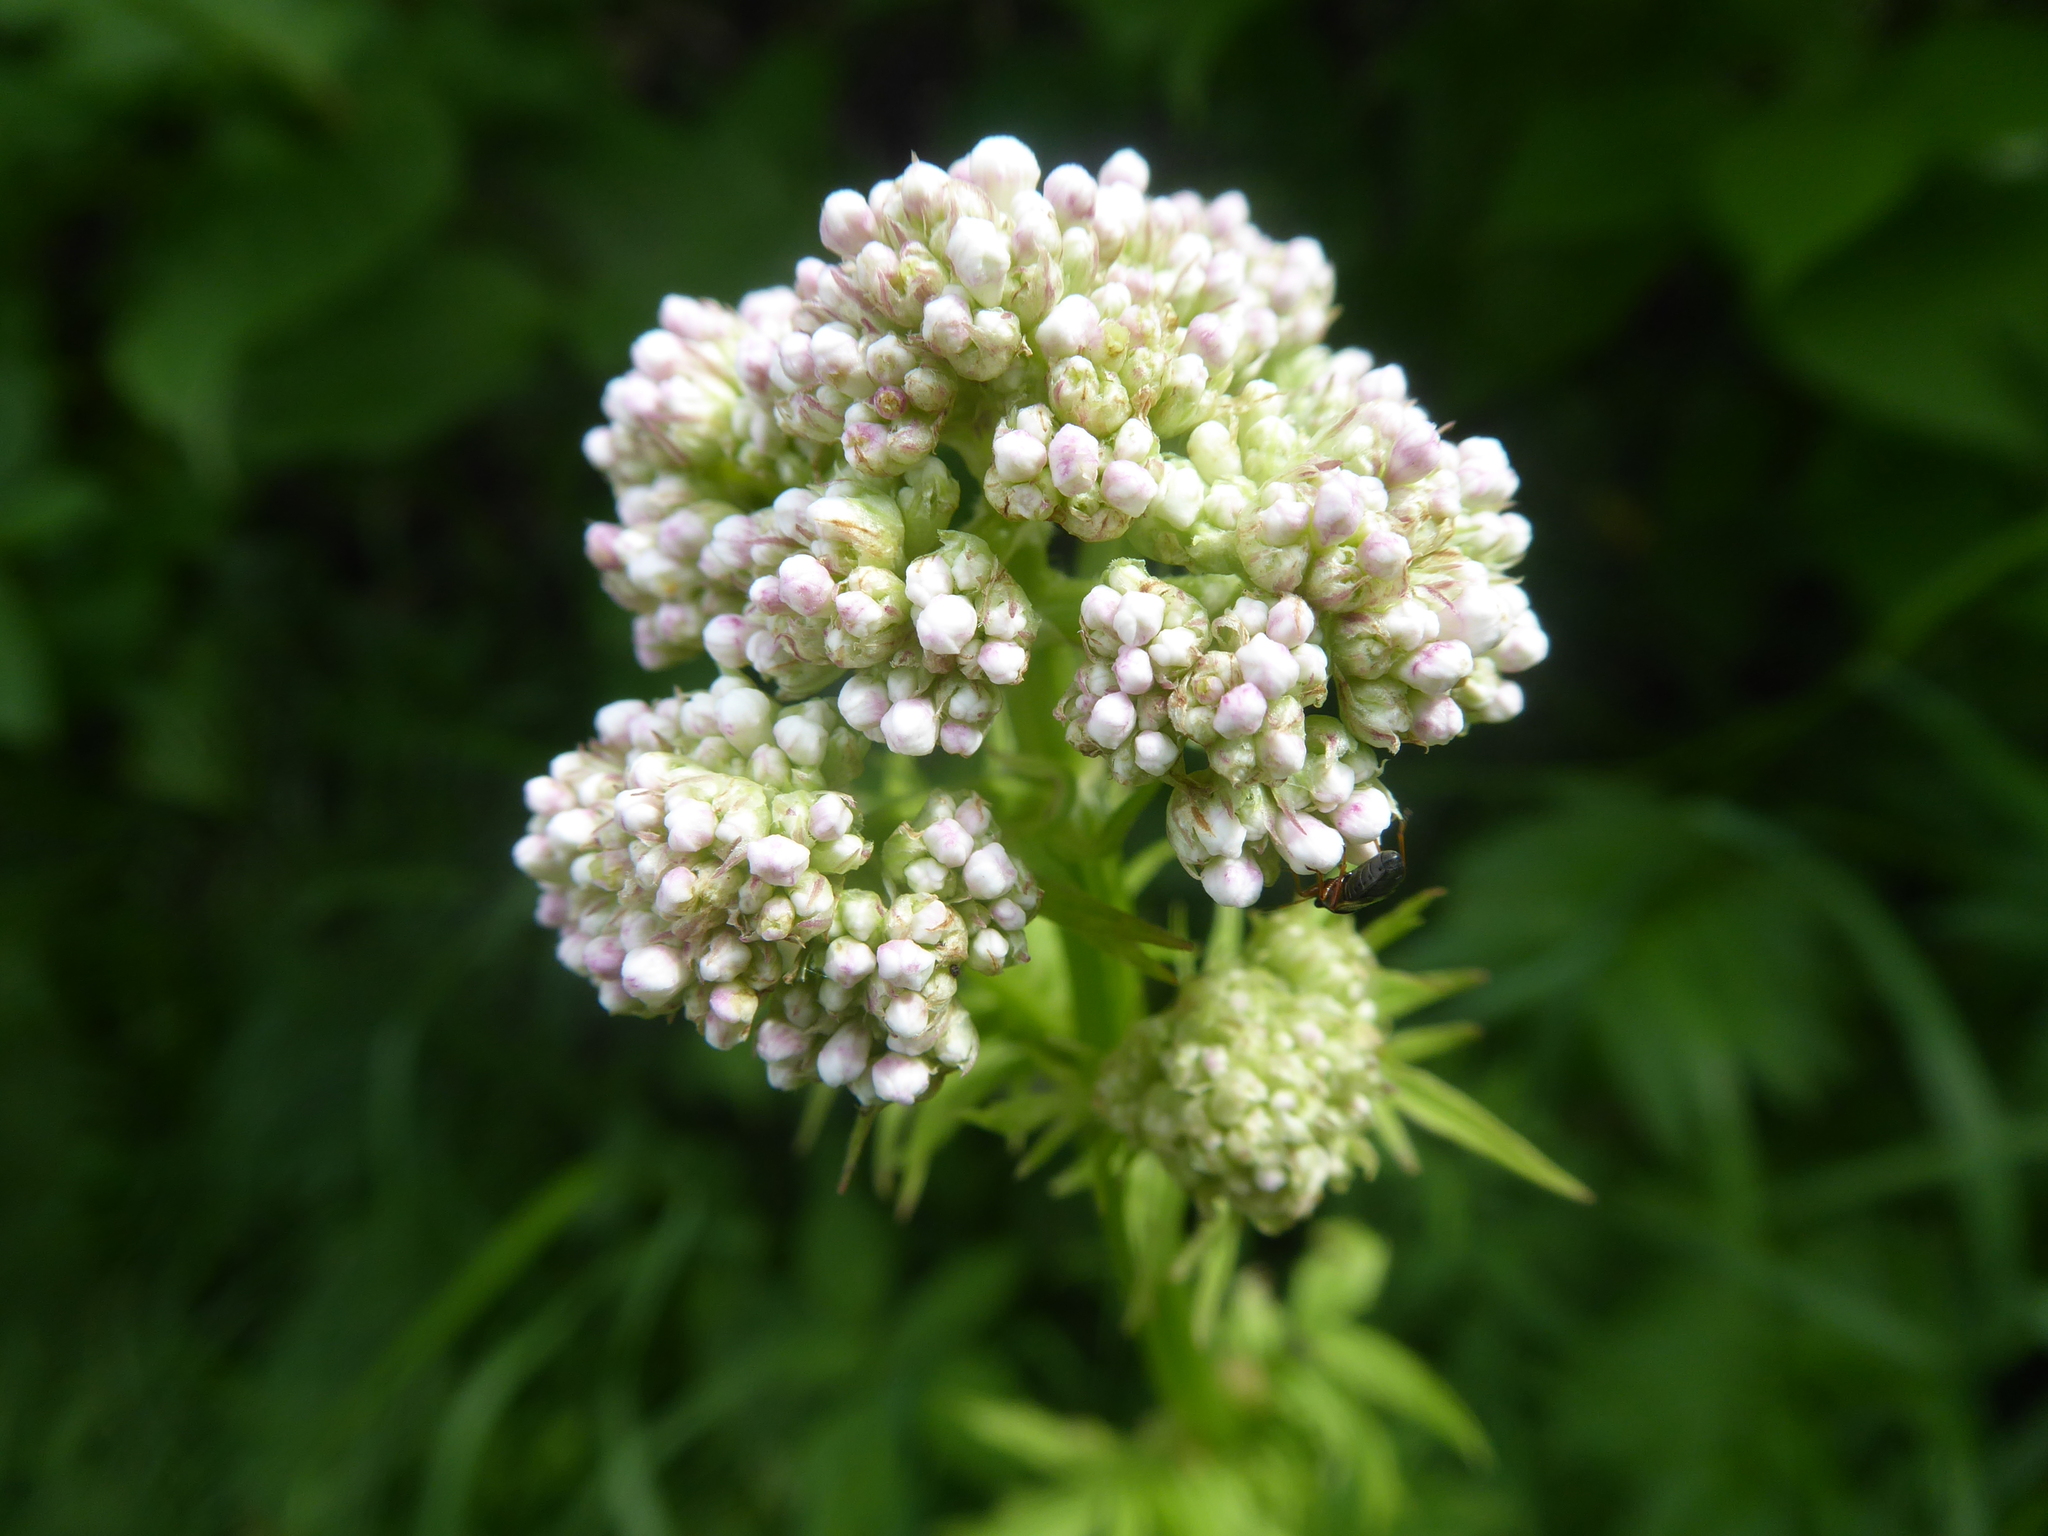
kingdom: Plantae
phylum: Tracheophyta
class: Magnoliopsida
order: Dipsacales
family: Caprifoliaceae
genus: Valeriana
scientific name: Valeriana officinalis
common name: Common valerian
